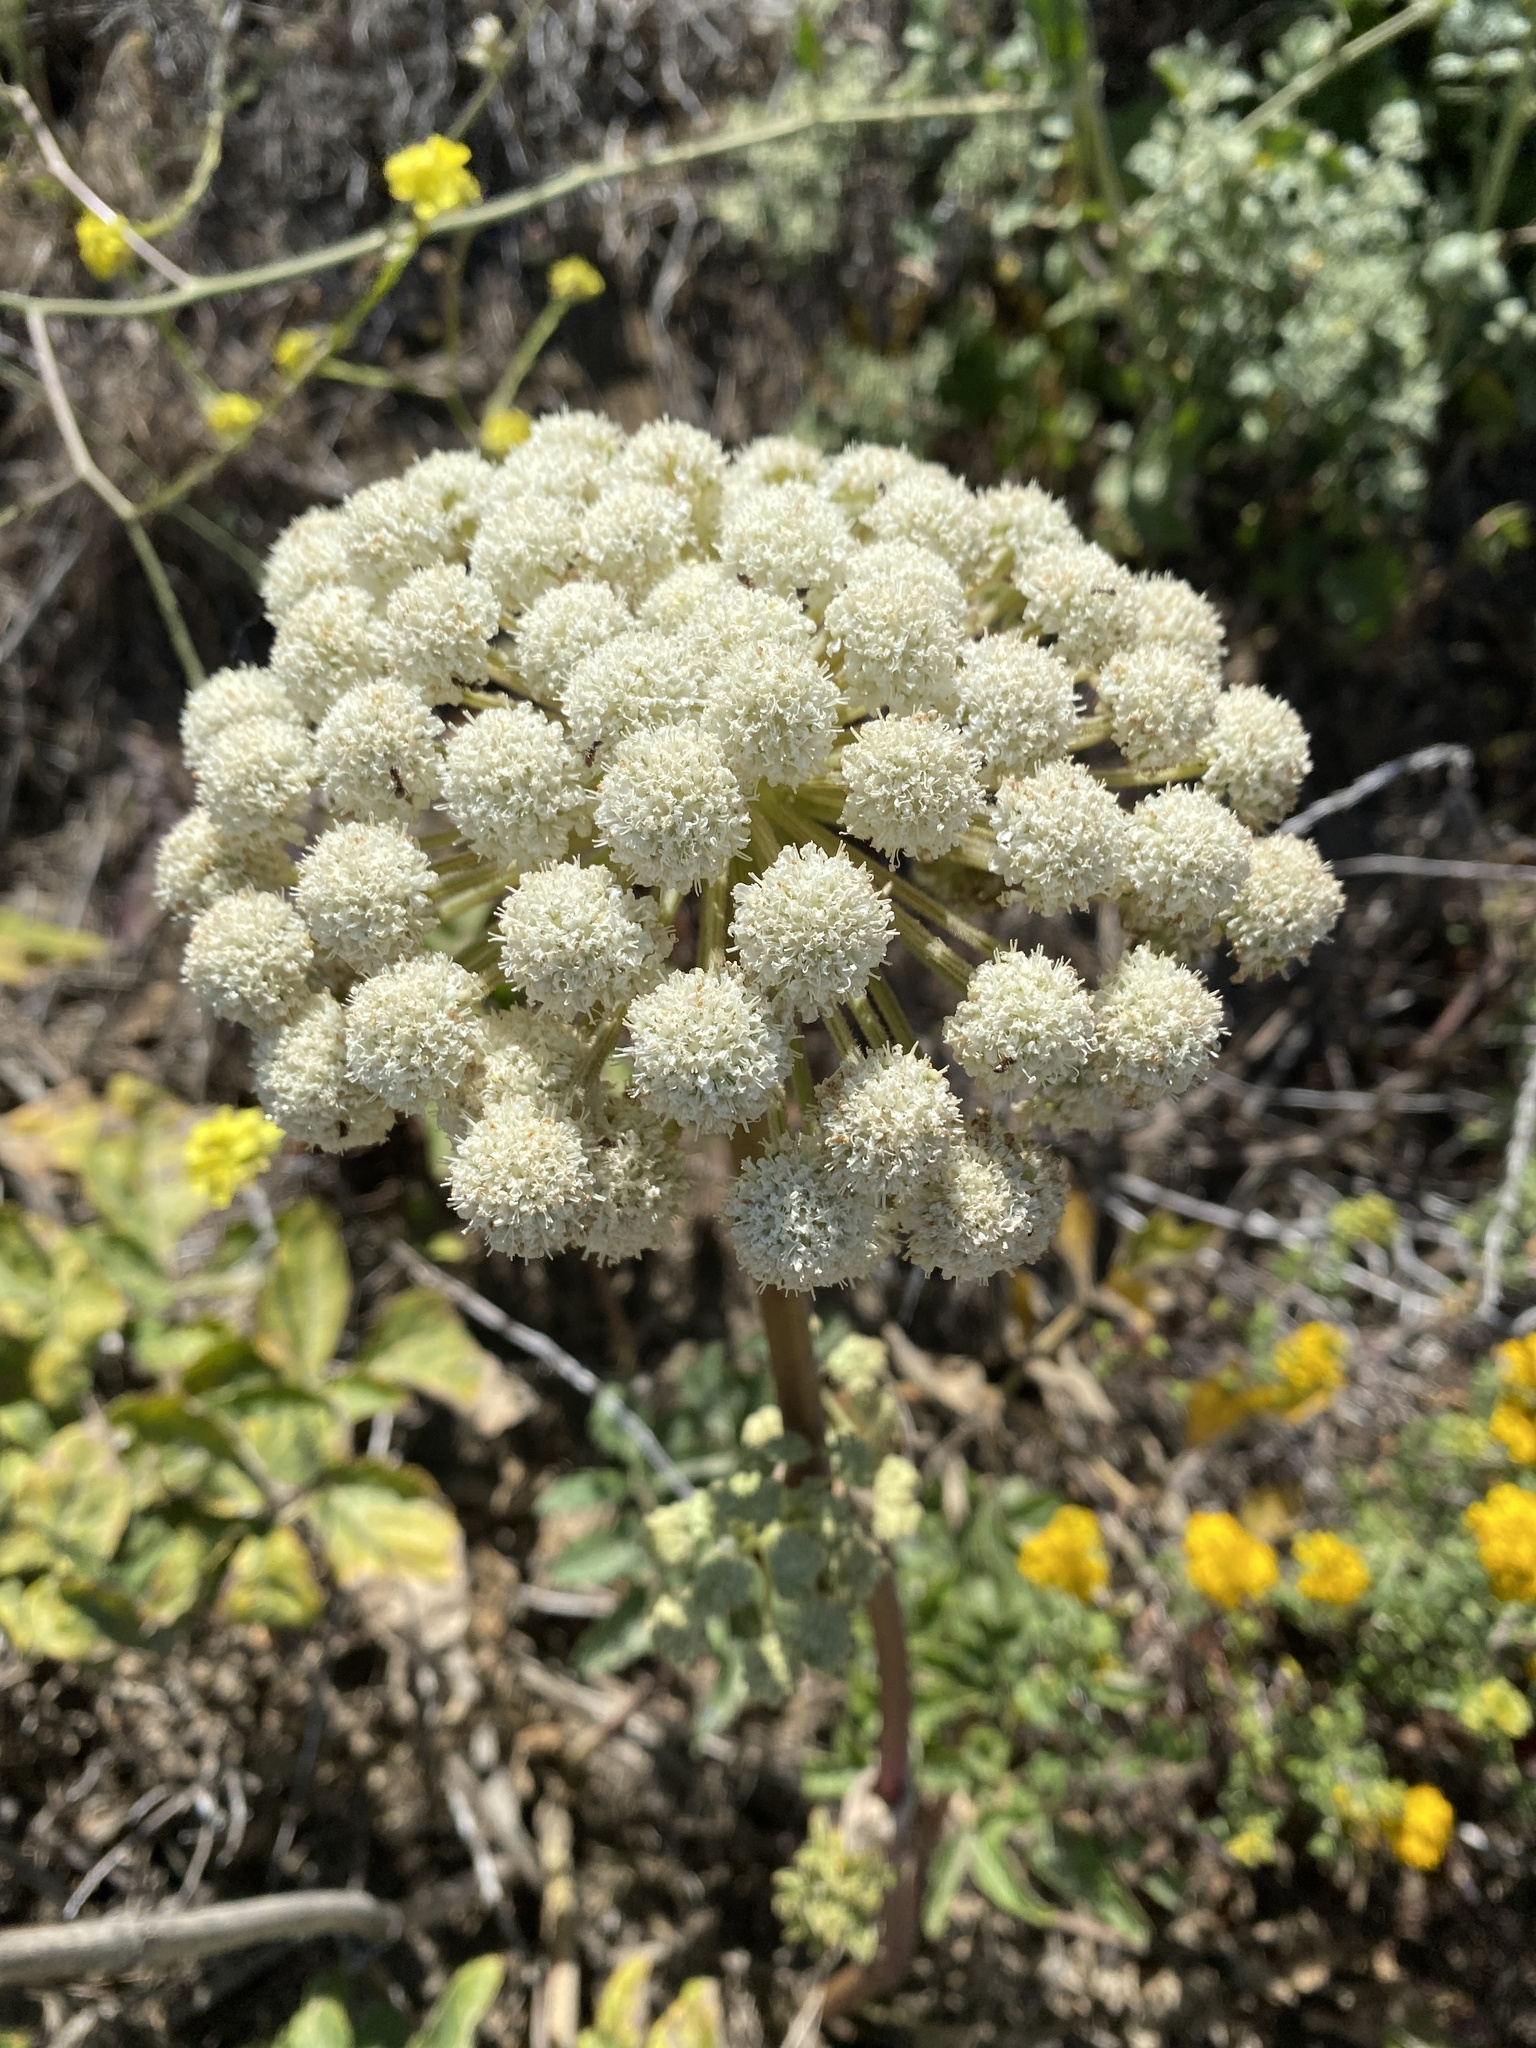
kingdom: Plantae
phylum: Tracheophyta
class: Magnoliopsida
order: Apiales
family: Apiaceae
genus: Angelica
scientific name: Angelica hendersonii
